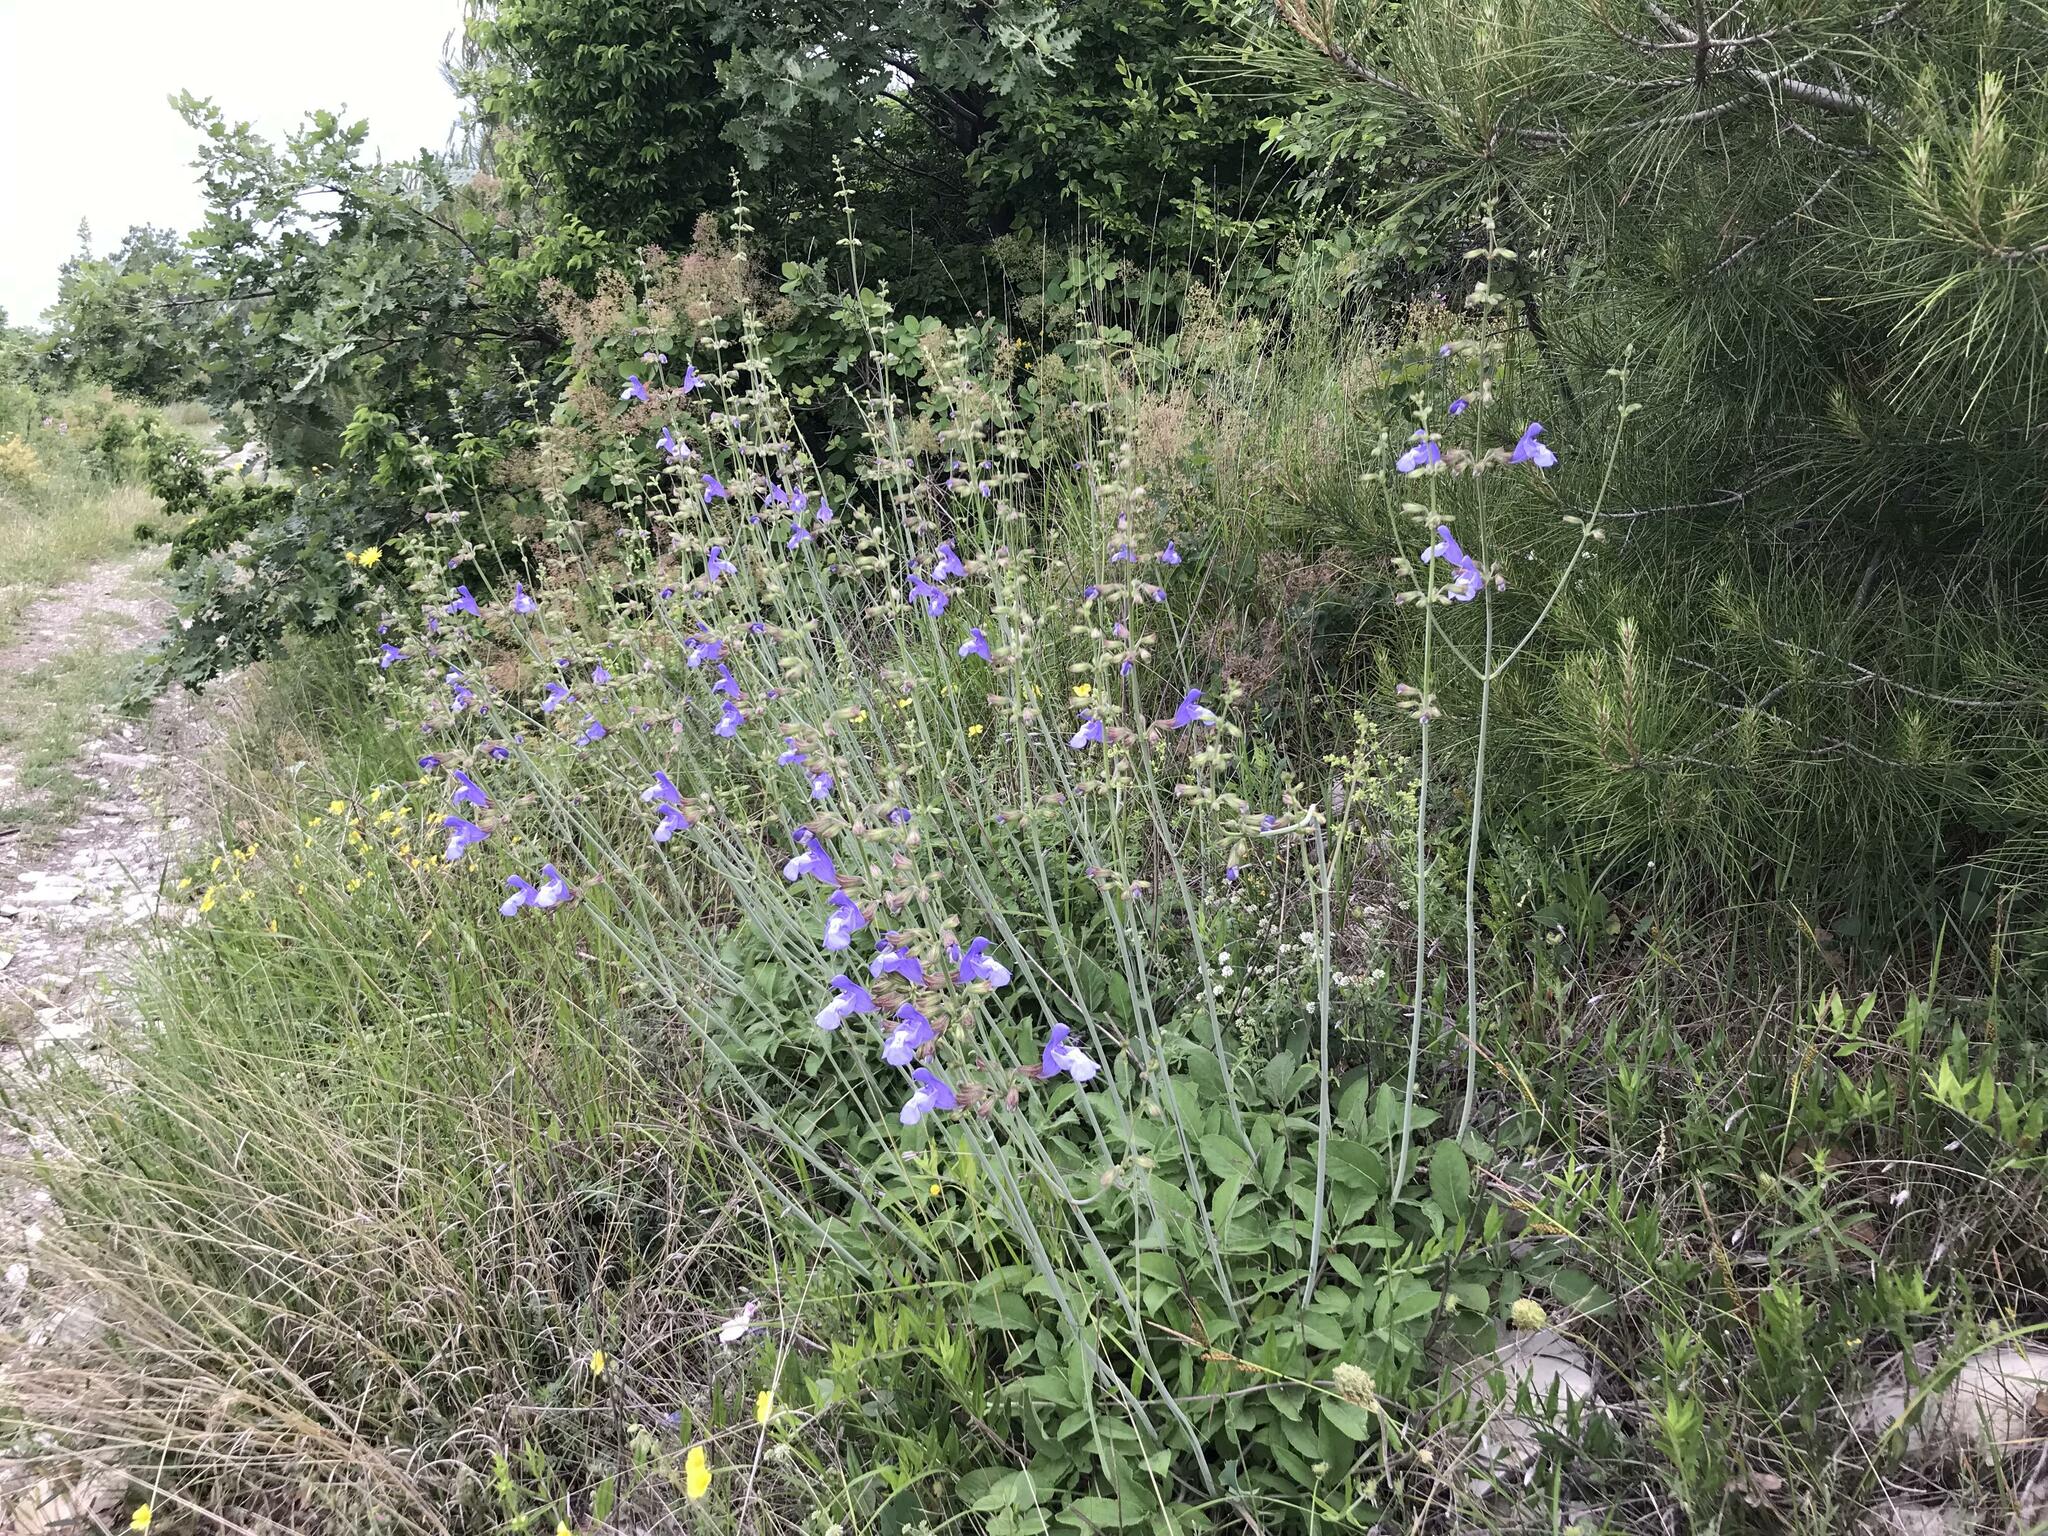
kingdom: Plantae
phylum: Tracheophyta
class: Magnoliopsida
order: Lamiales
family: Lamiaceae
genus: Salvia
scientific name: Salvia ringens
